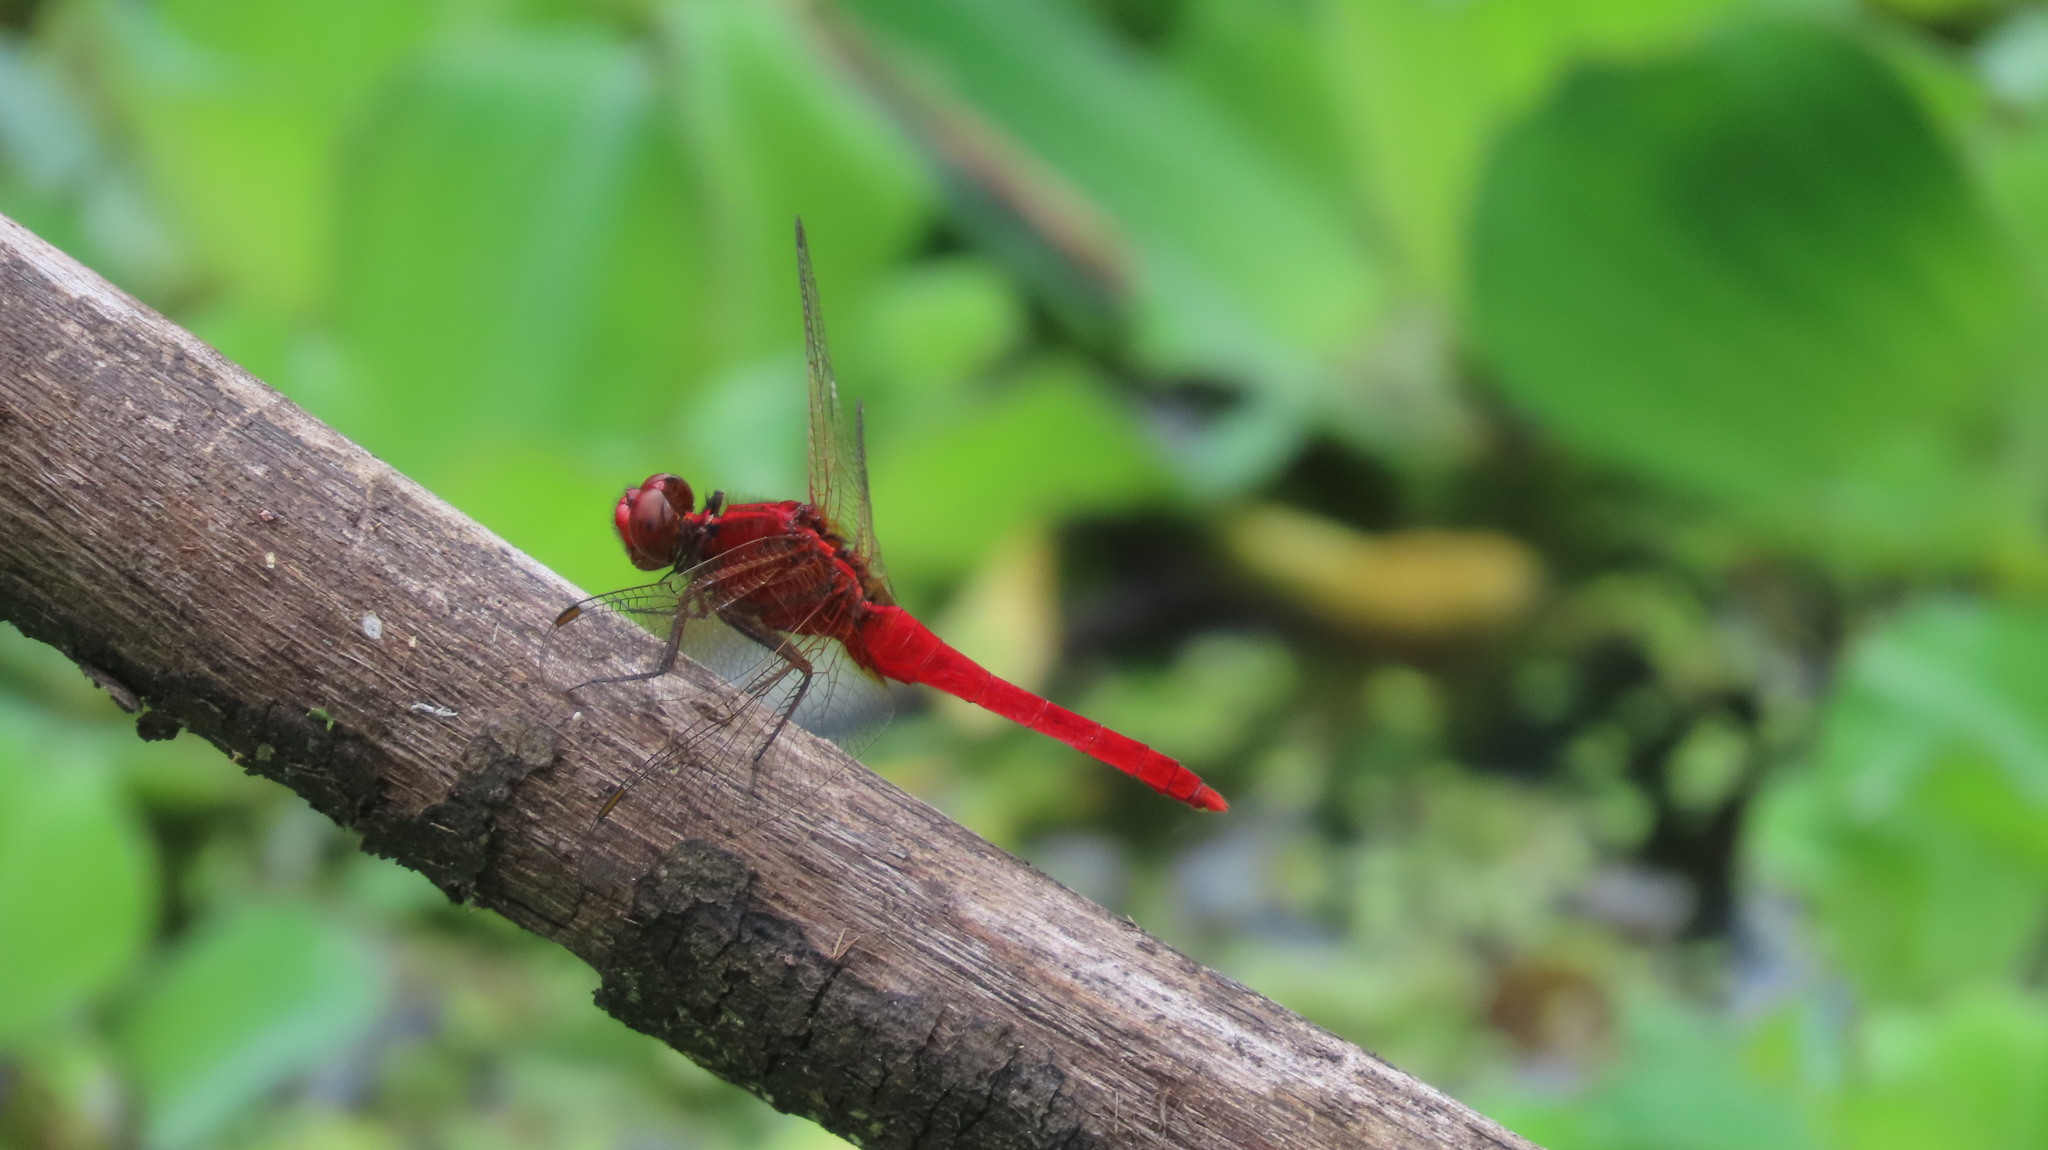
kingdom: Animalia
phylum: Arthropoda
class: Insecta
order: Odonata
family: Libellulidae
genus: Rhodothemis
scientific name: Rhodothemis rufa
